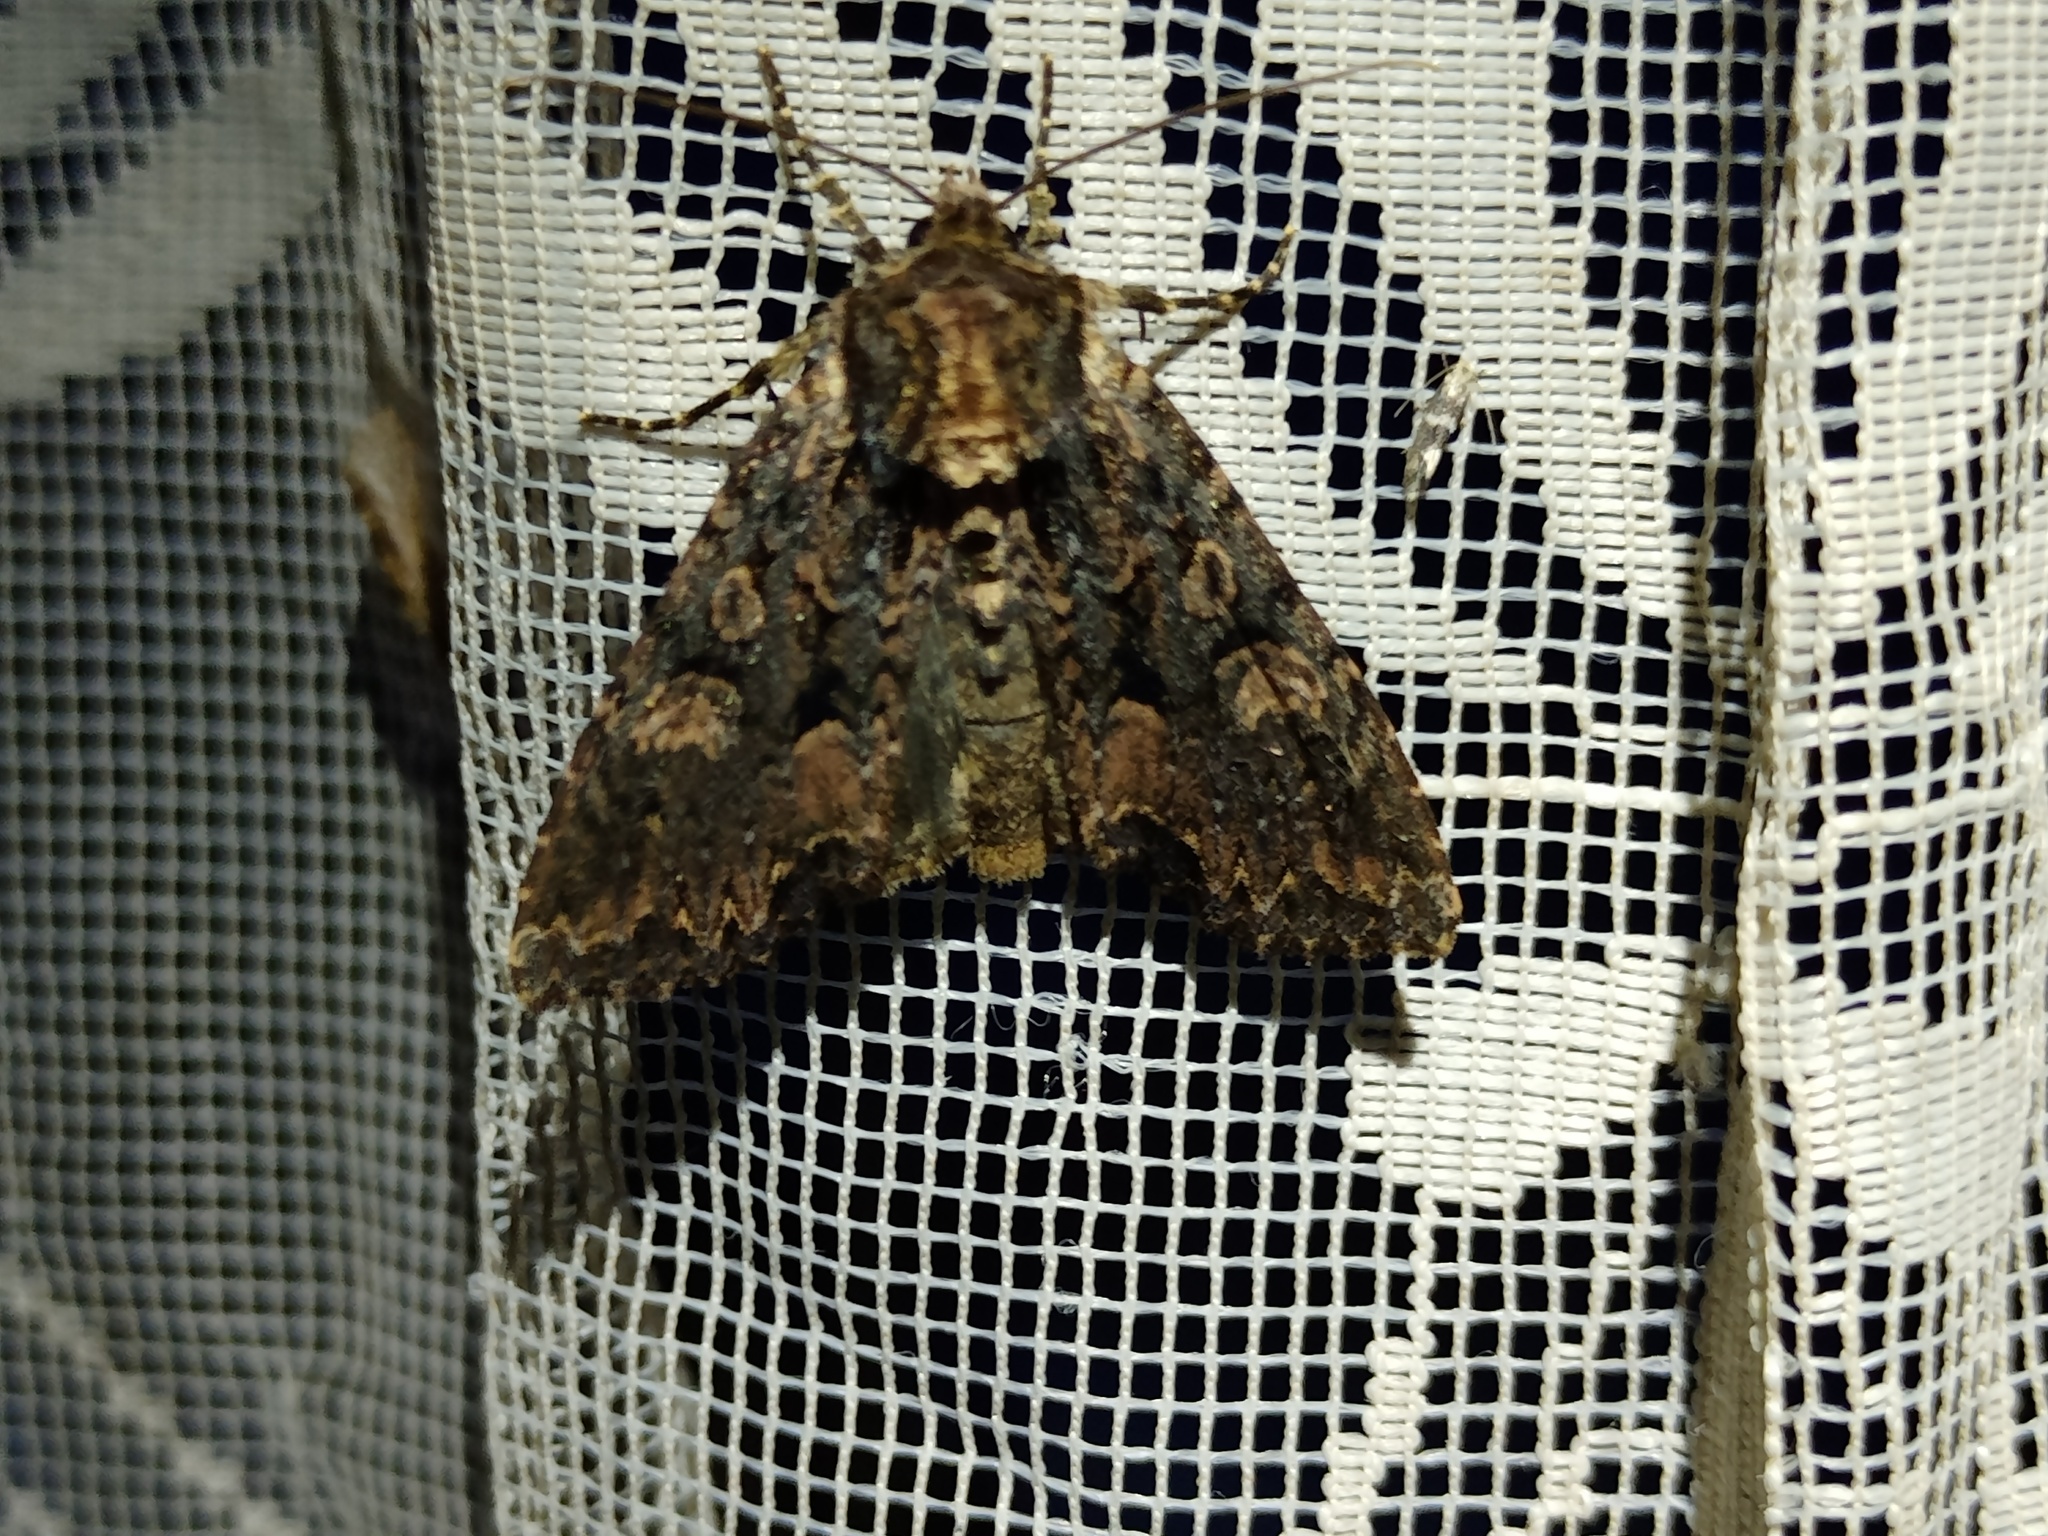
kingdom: Animalia
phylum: Arthropoda
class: Insecta
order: Lepidoptera
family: Noctuidae
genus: Mniotype
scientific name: Mniotype satura
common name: Beautiful arches
